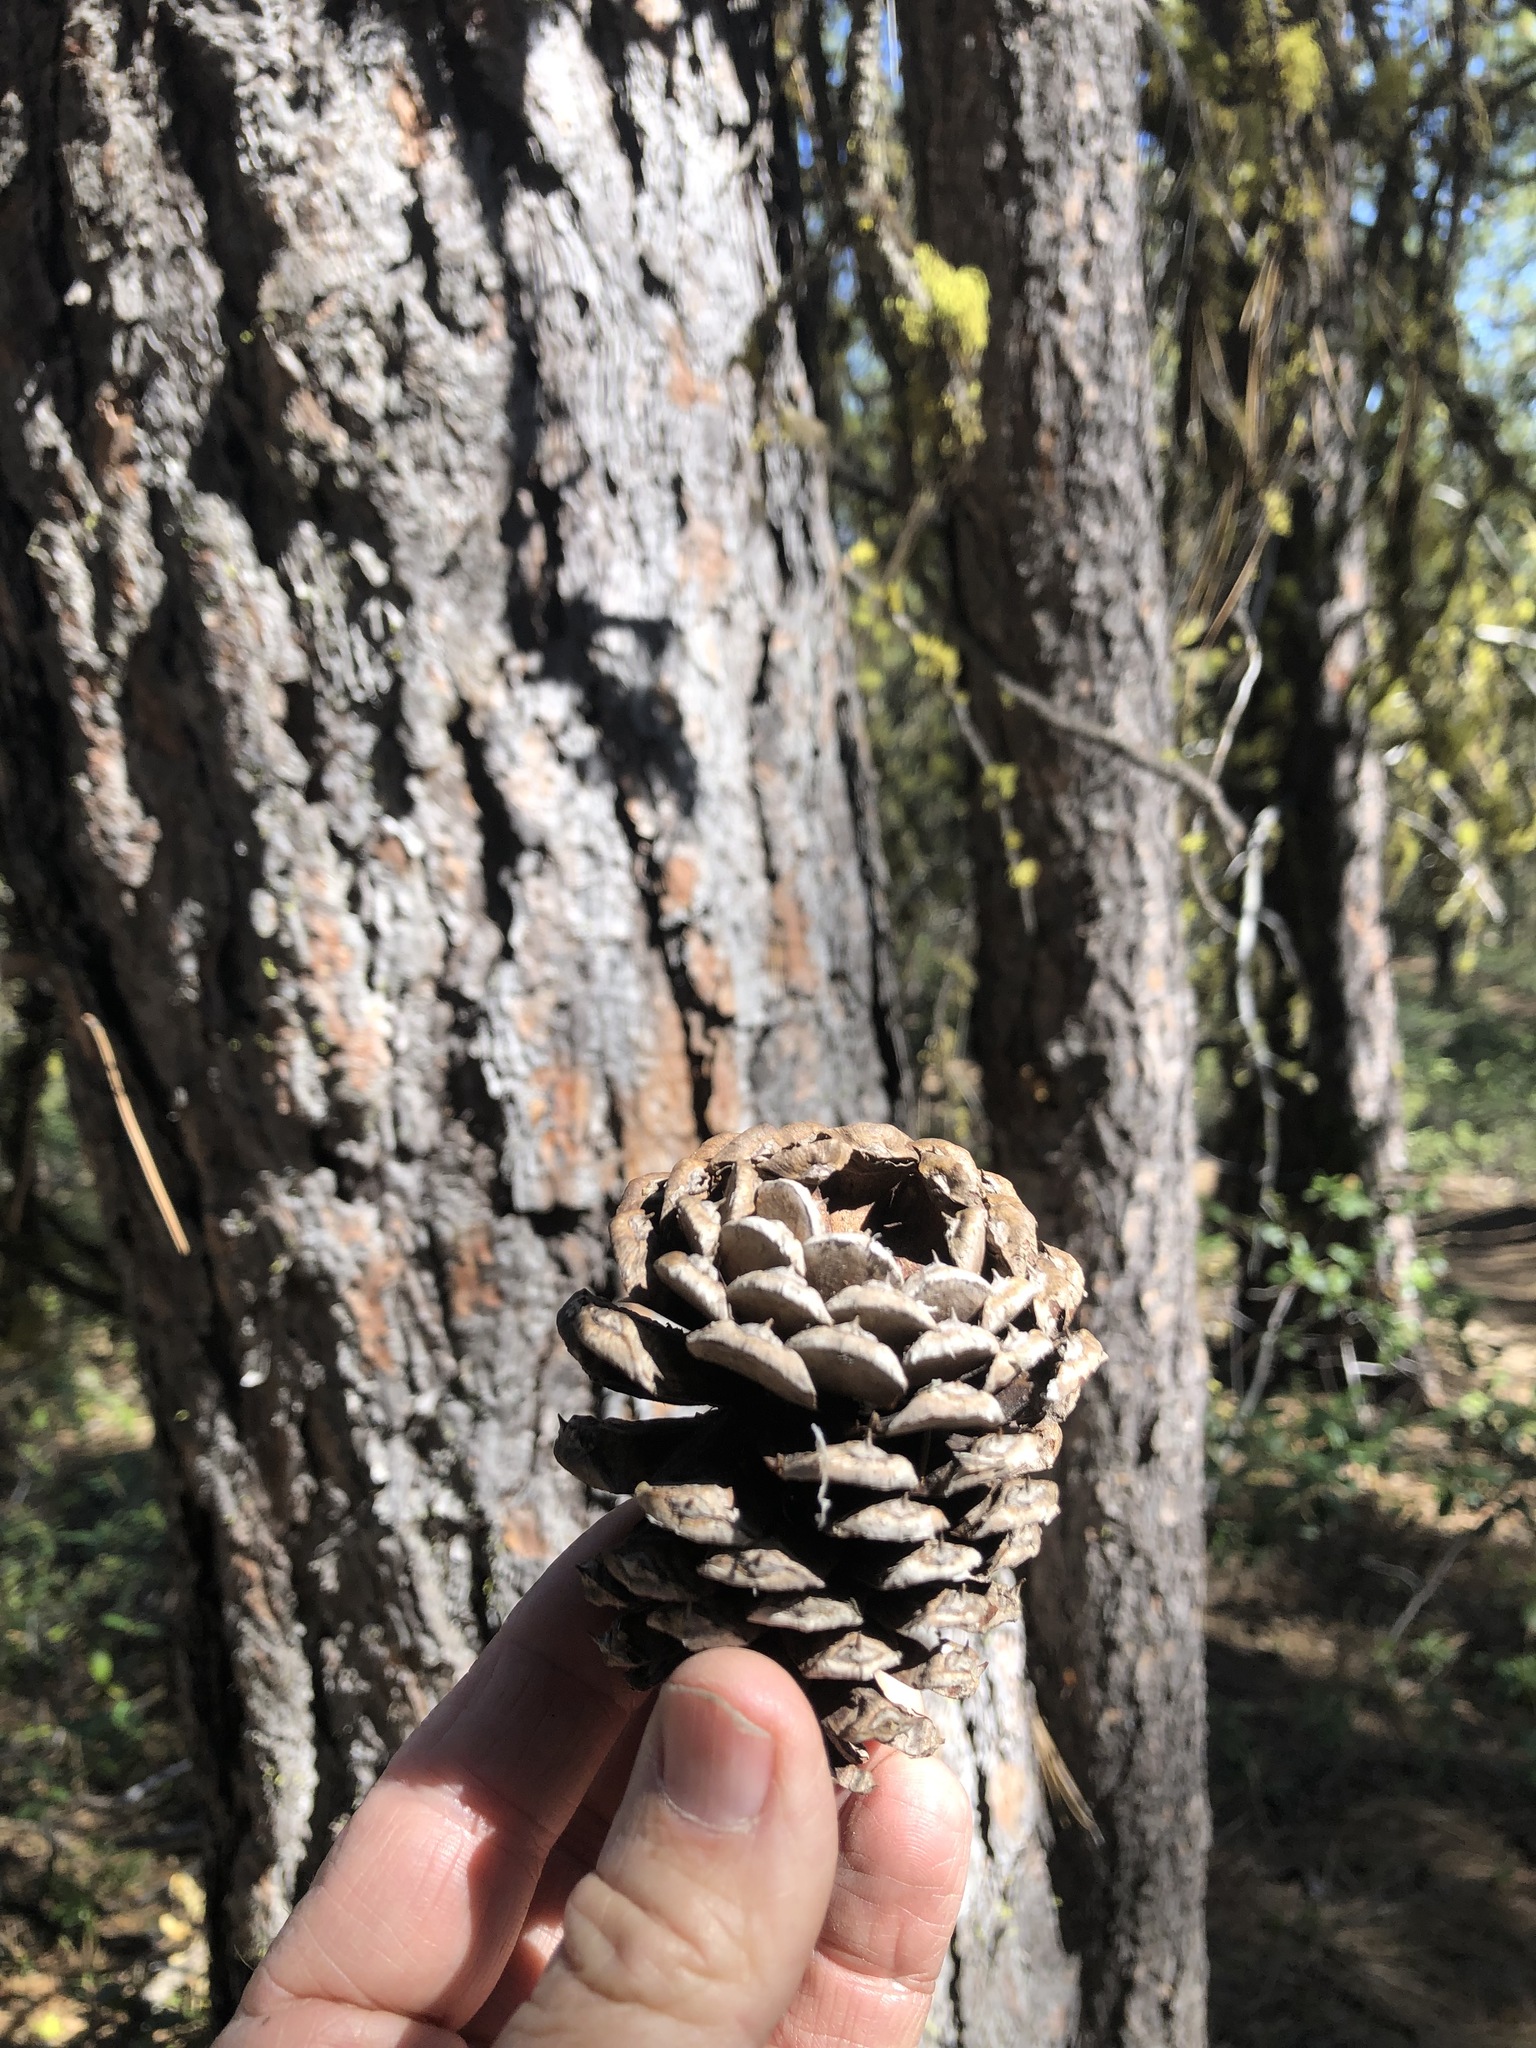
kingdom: Plantae
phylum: Tracheophyta
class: Pinopsida
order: Pinales
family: Pinaceae
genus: Pinus
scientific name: Pinus ponderosa
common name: Western yellow-pine
